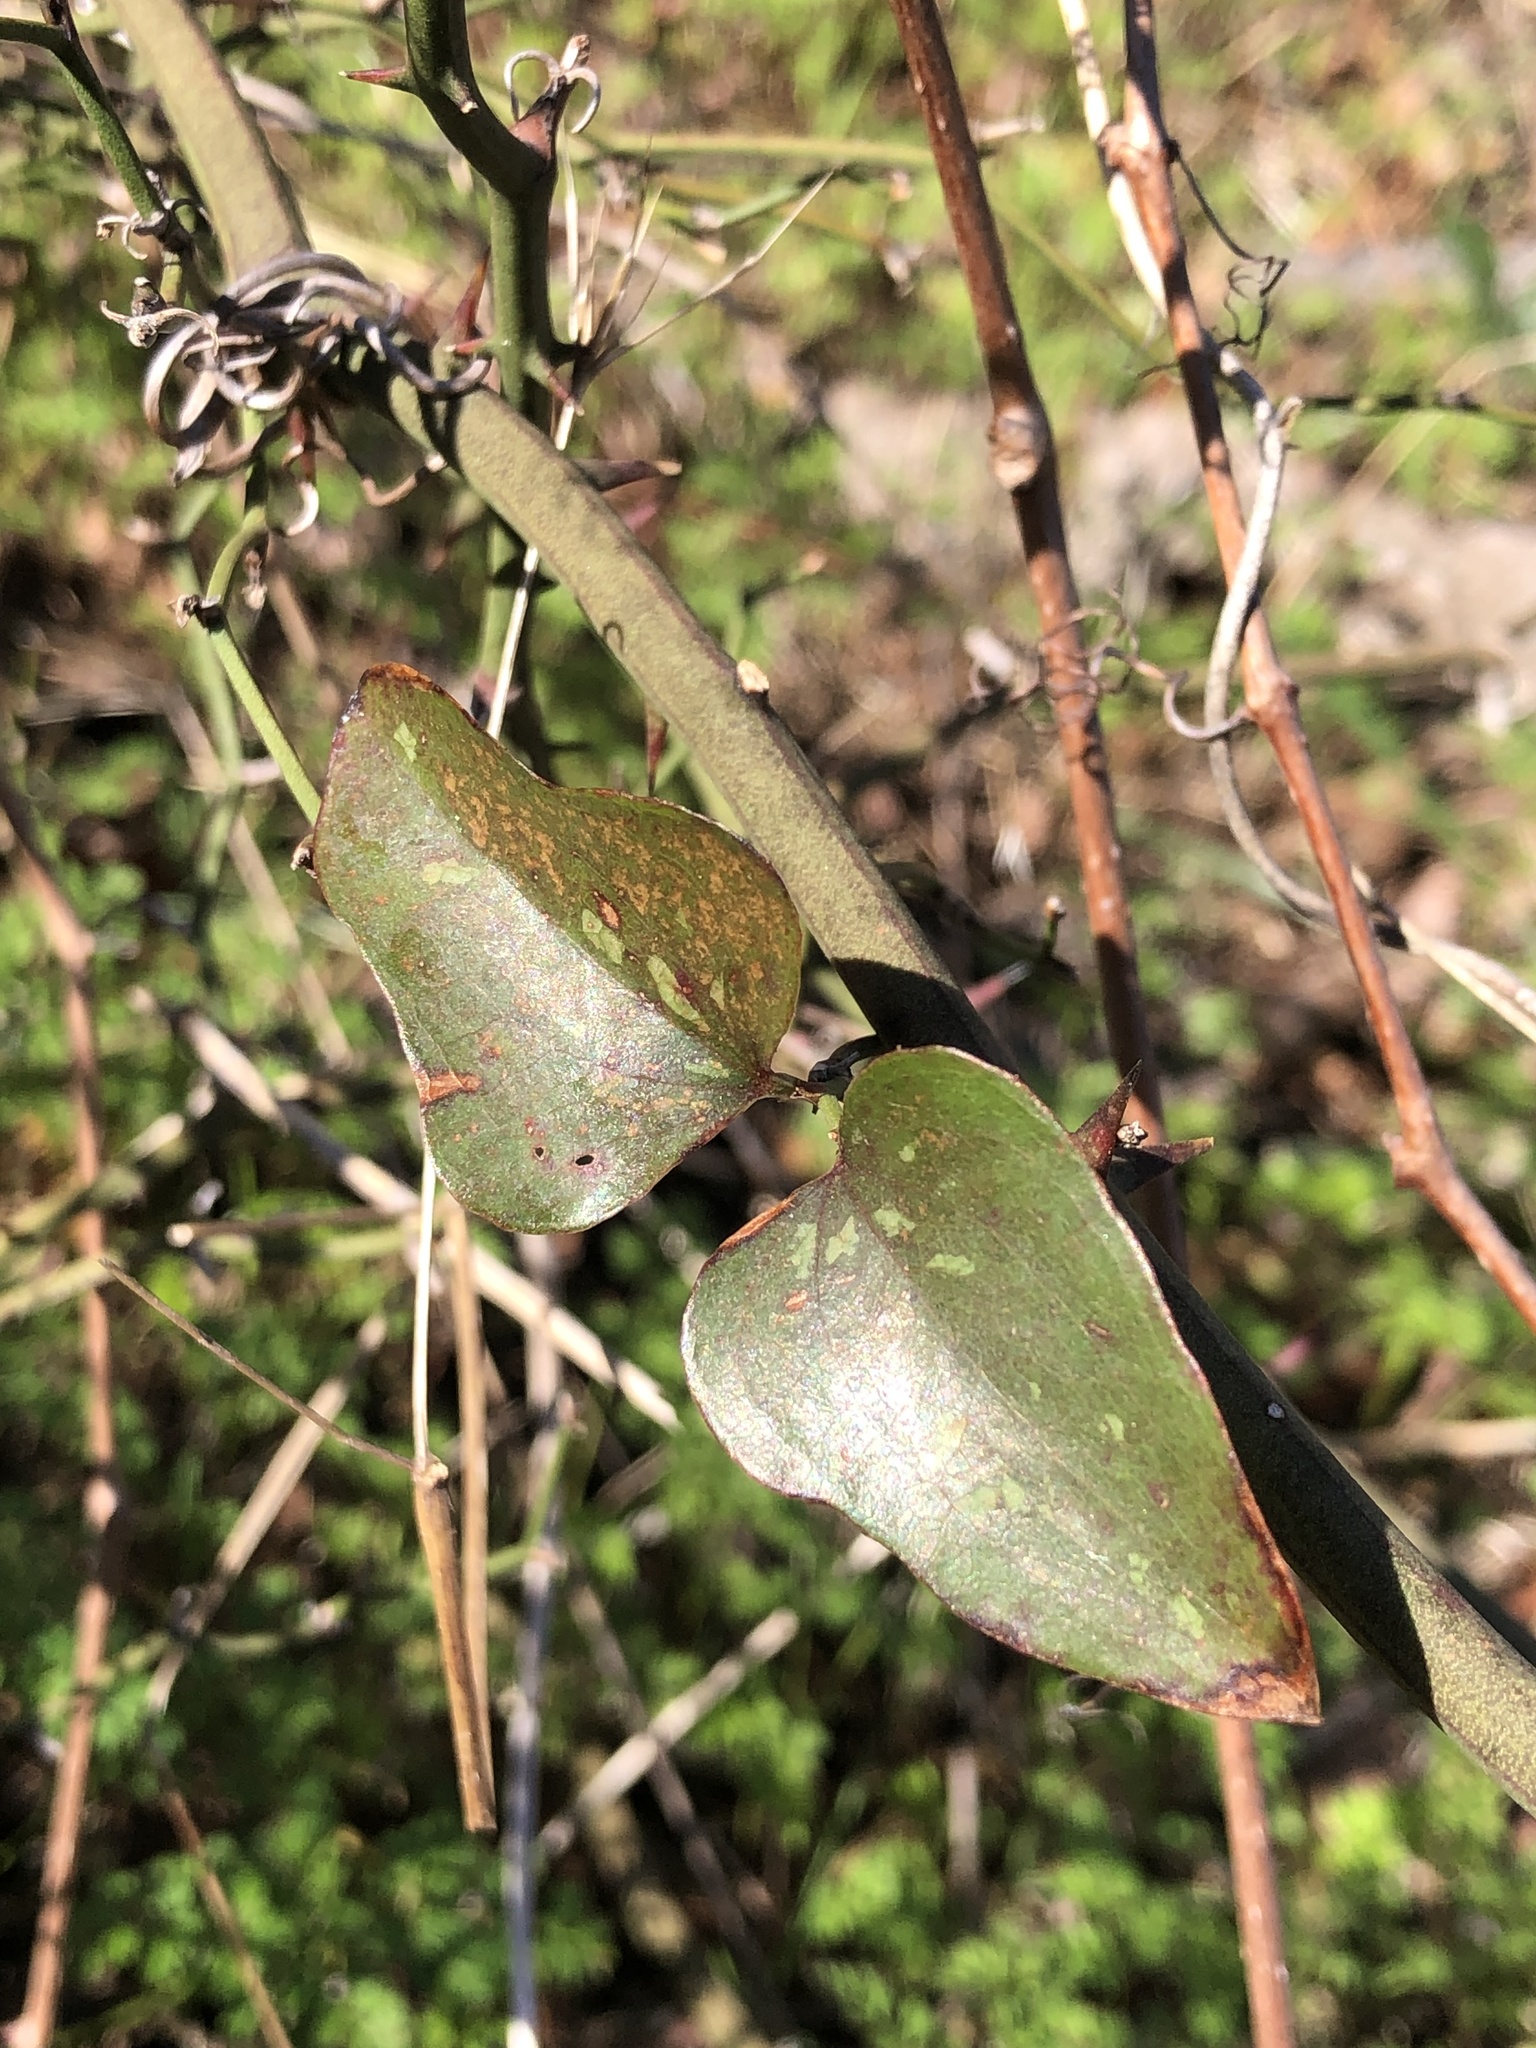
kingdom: Plantae
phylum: Tracheophyta
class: Liliopsida
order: Liliales
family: Smilacaceae
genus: Smilax
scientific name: Smilax bona-nox
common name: Catbrier
